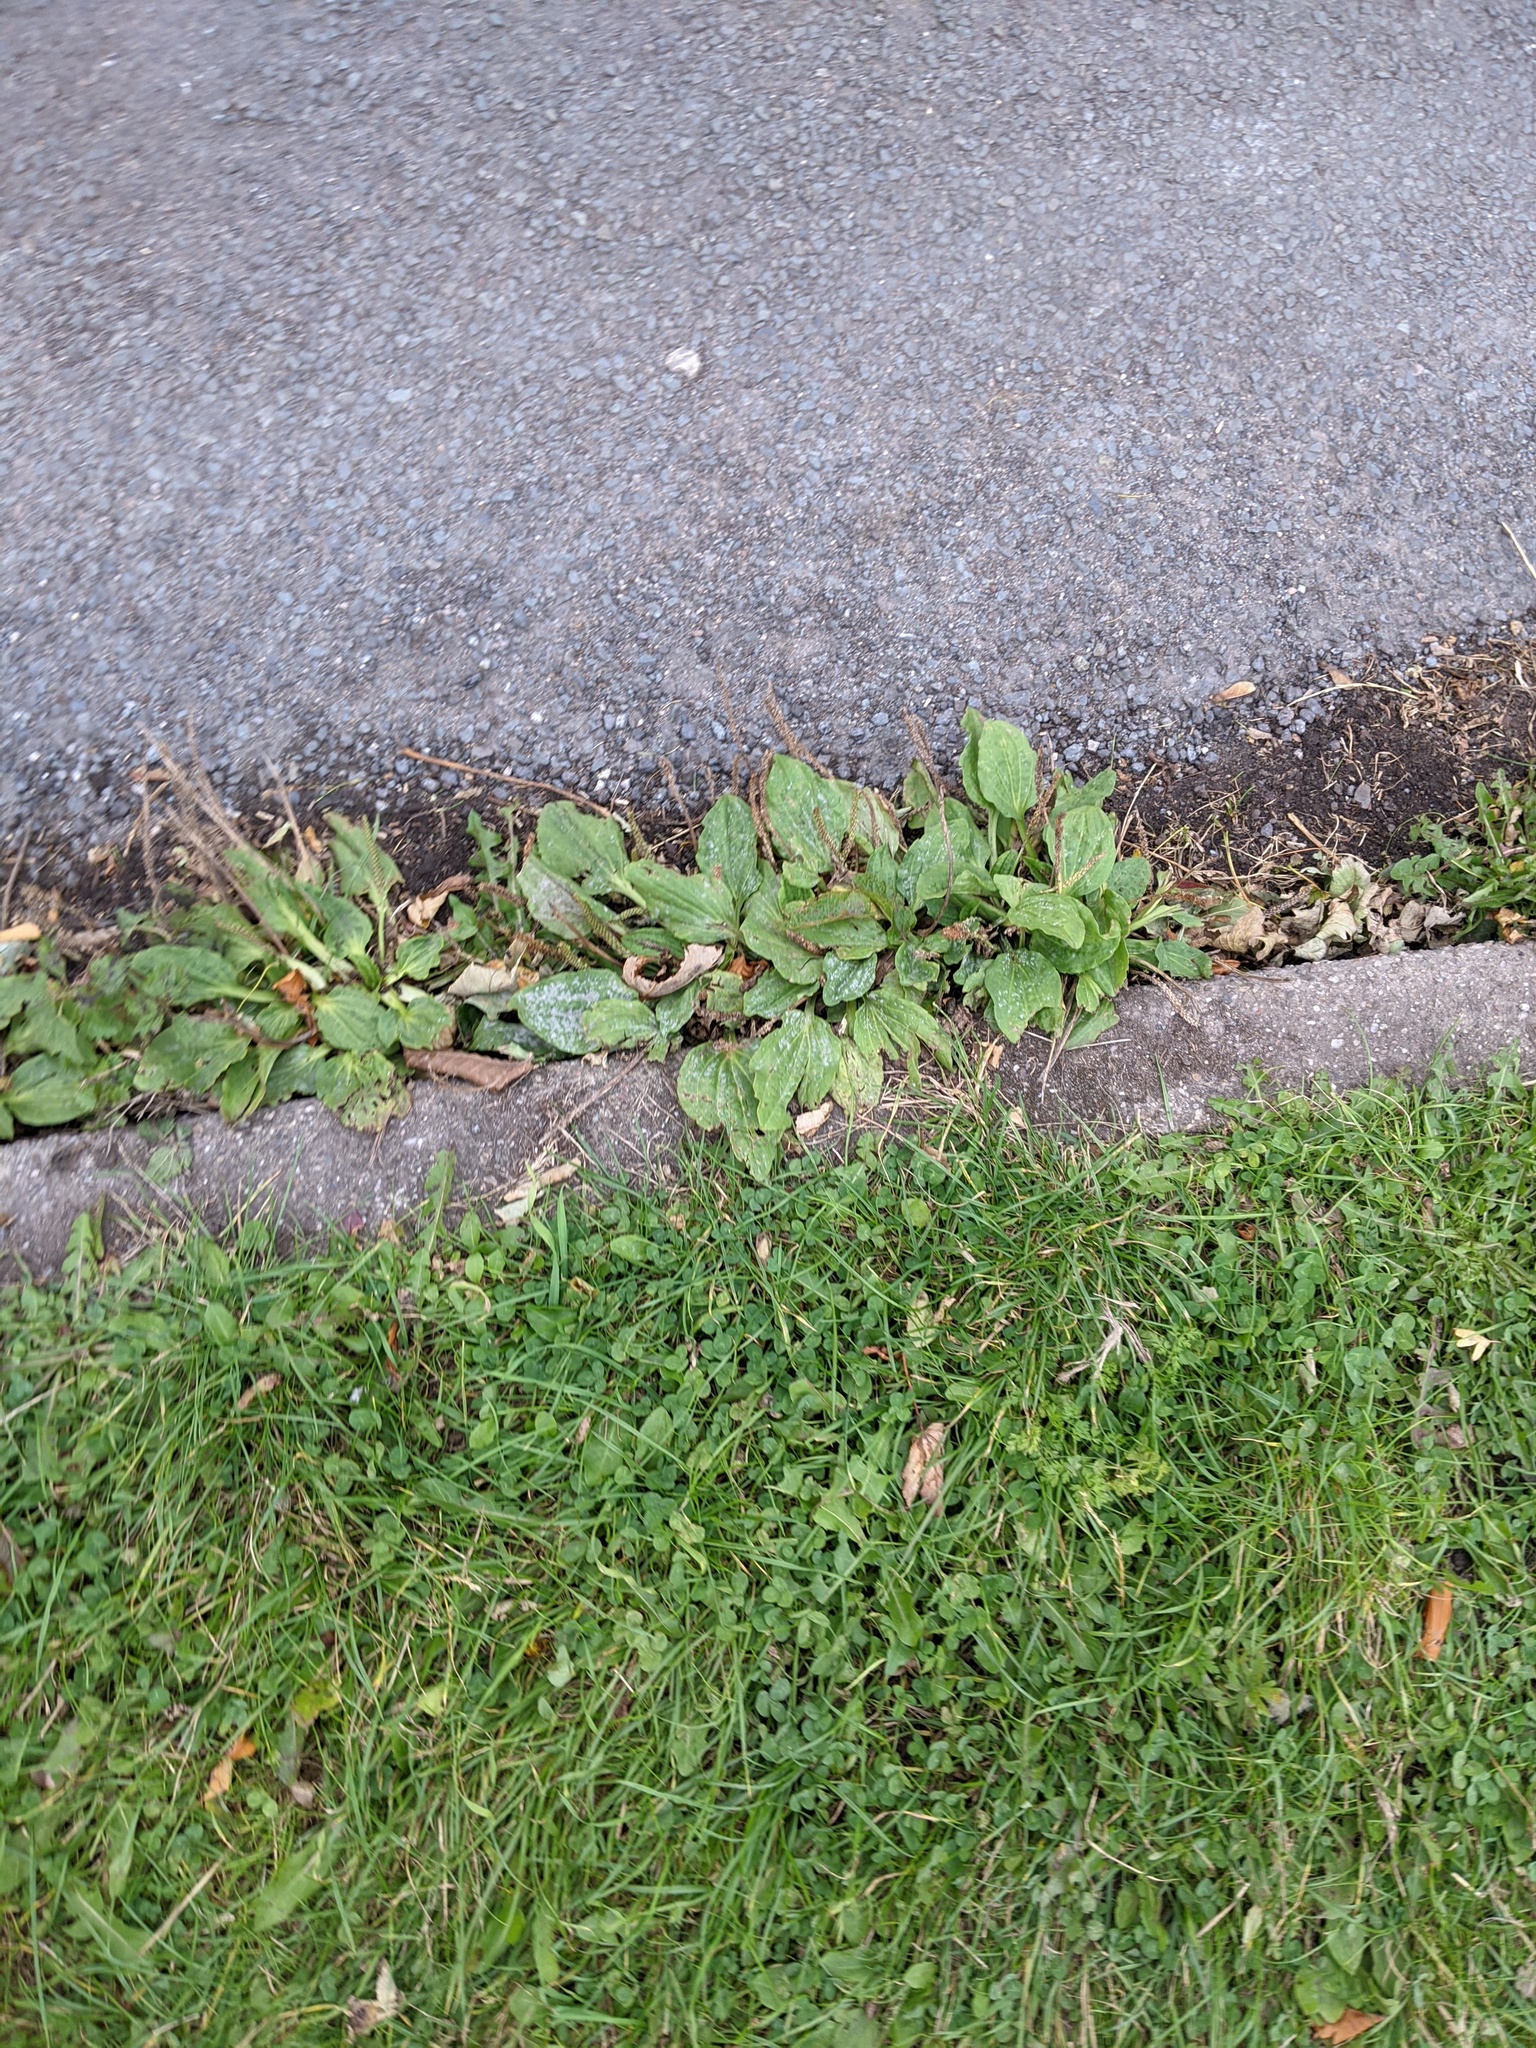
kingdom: Plantae
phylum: Tracheophyta
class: Magnoliopsida
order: Lamiales
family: Plantaginaceae
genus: Plantago
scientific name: Plantago major
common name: Common plantain
